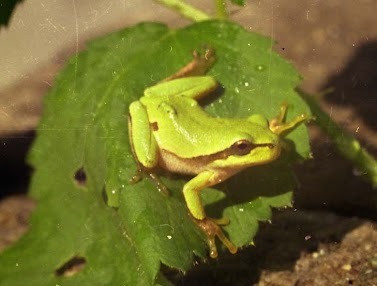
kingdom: Animalia
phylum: Chordata
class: Amphibia
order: Anura
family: Hylidae
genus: Hyla
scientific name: Hyla orientalis
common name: Caucasian treefrog
